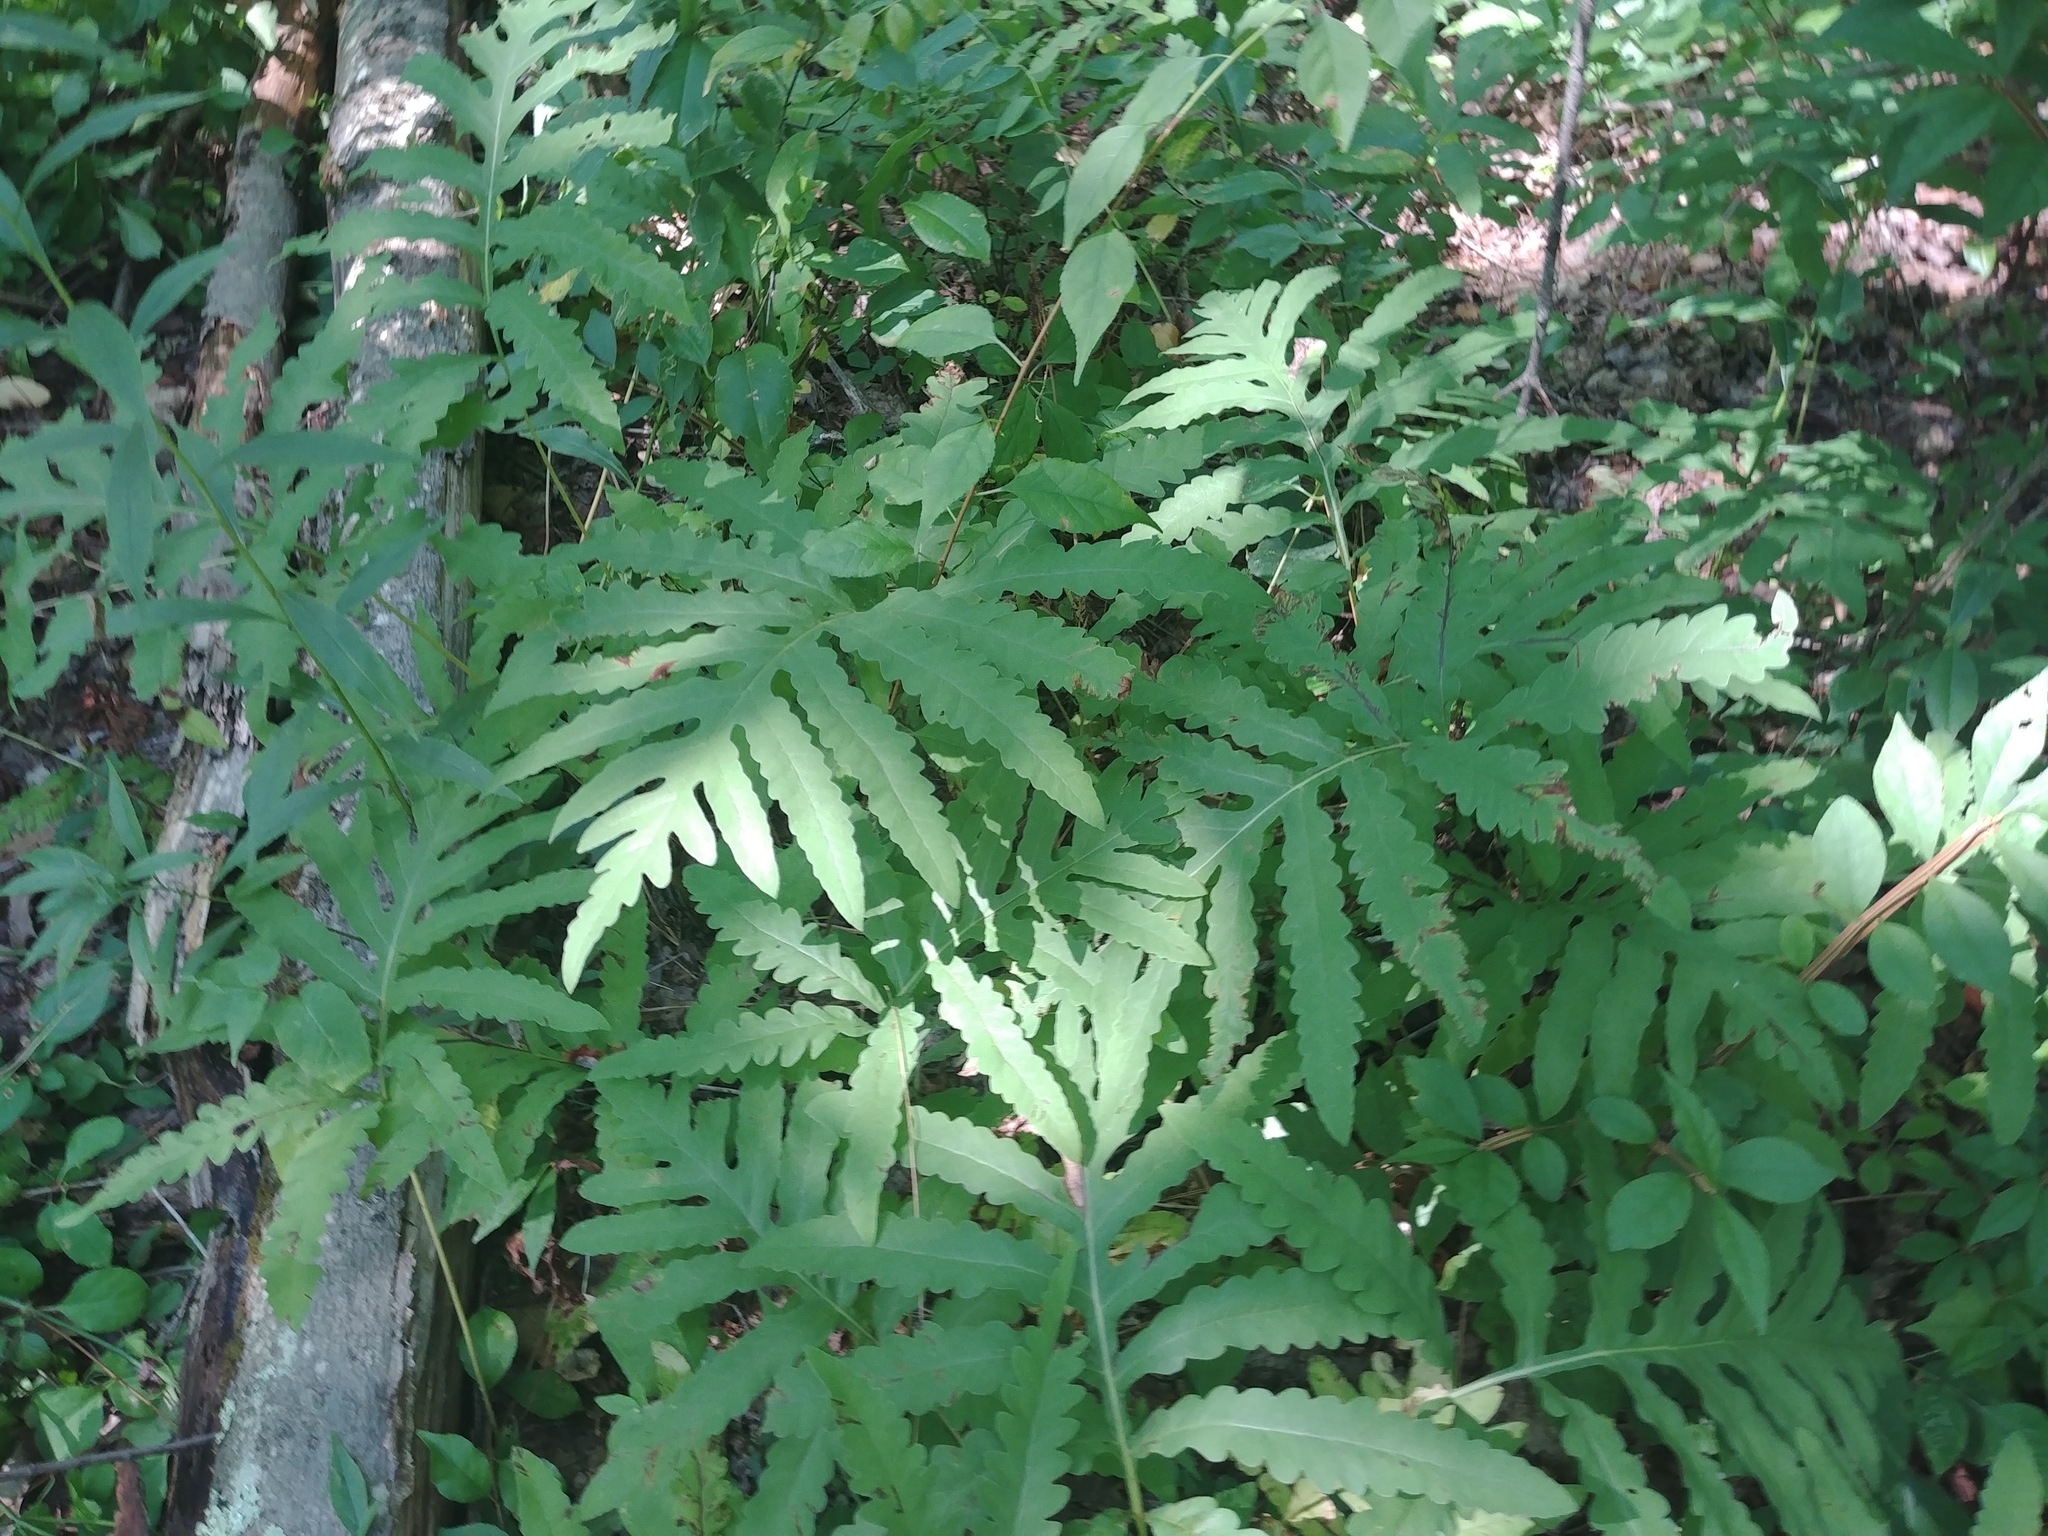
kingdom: Plantae
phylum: Tracheophyta
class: Polypodiopsida
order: Polypodiales
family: Onocleaceae
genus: Onoclea
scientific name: Onoclea sensibilis
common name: Sensitive fern
